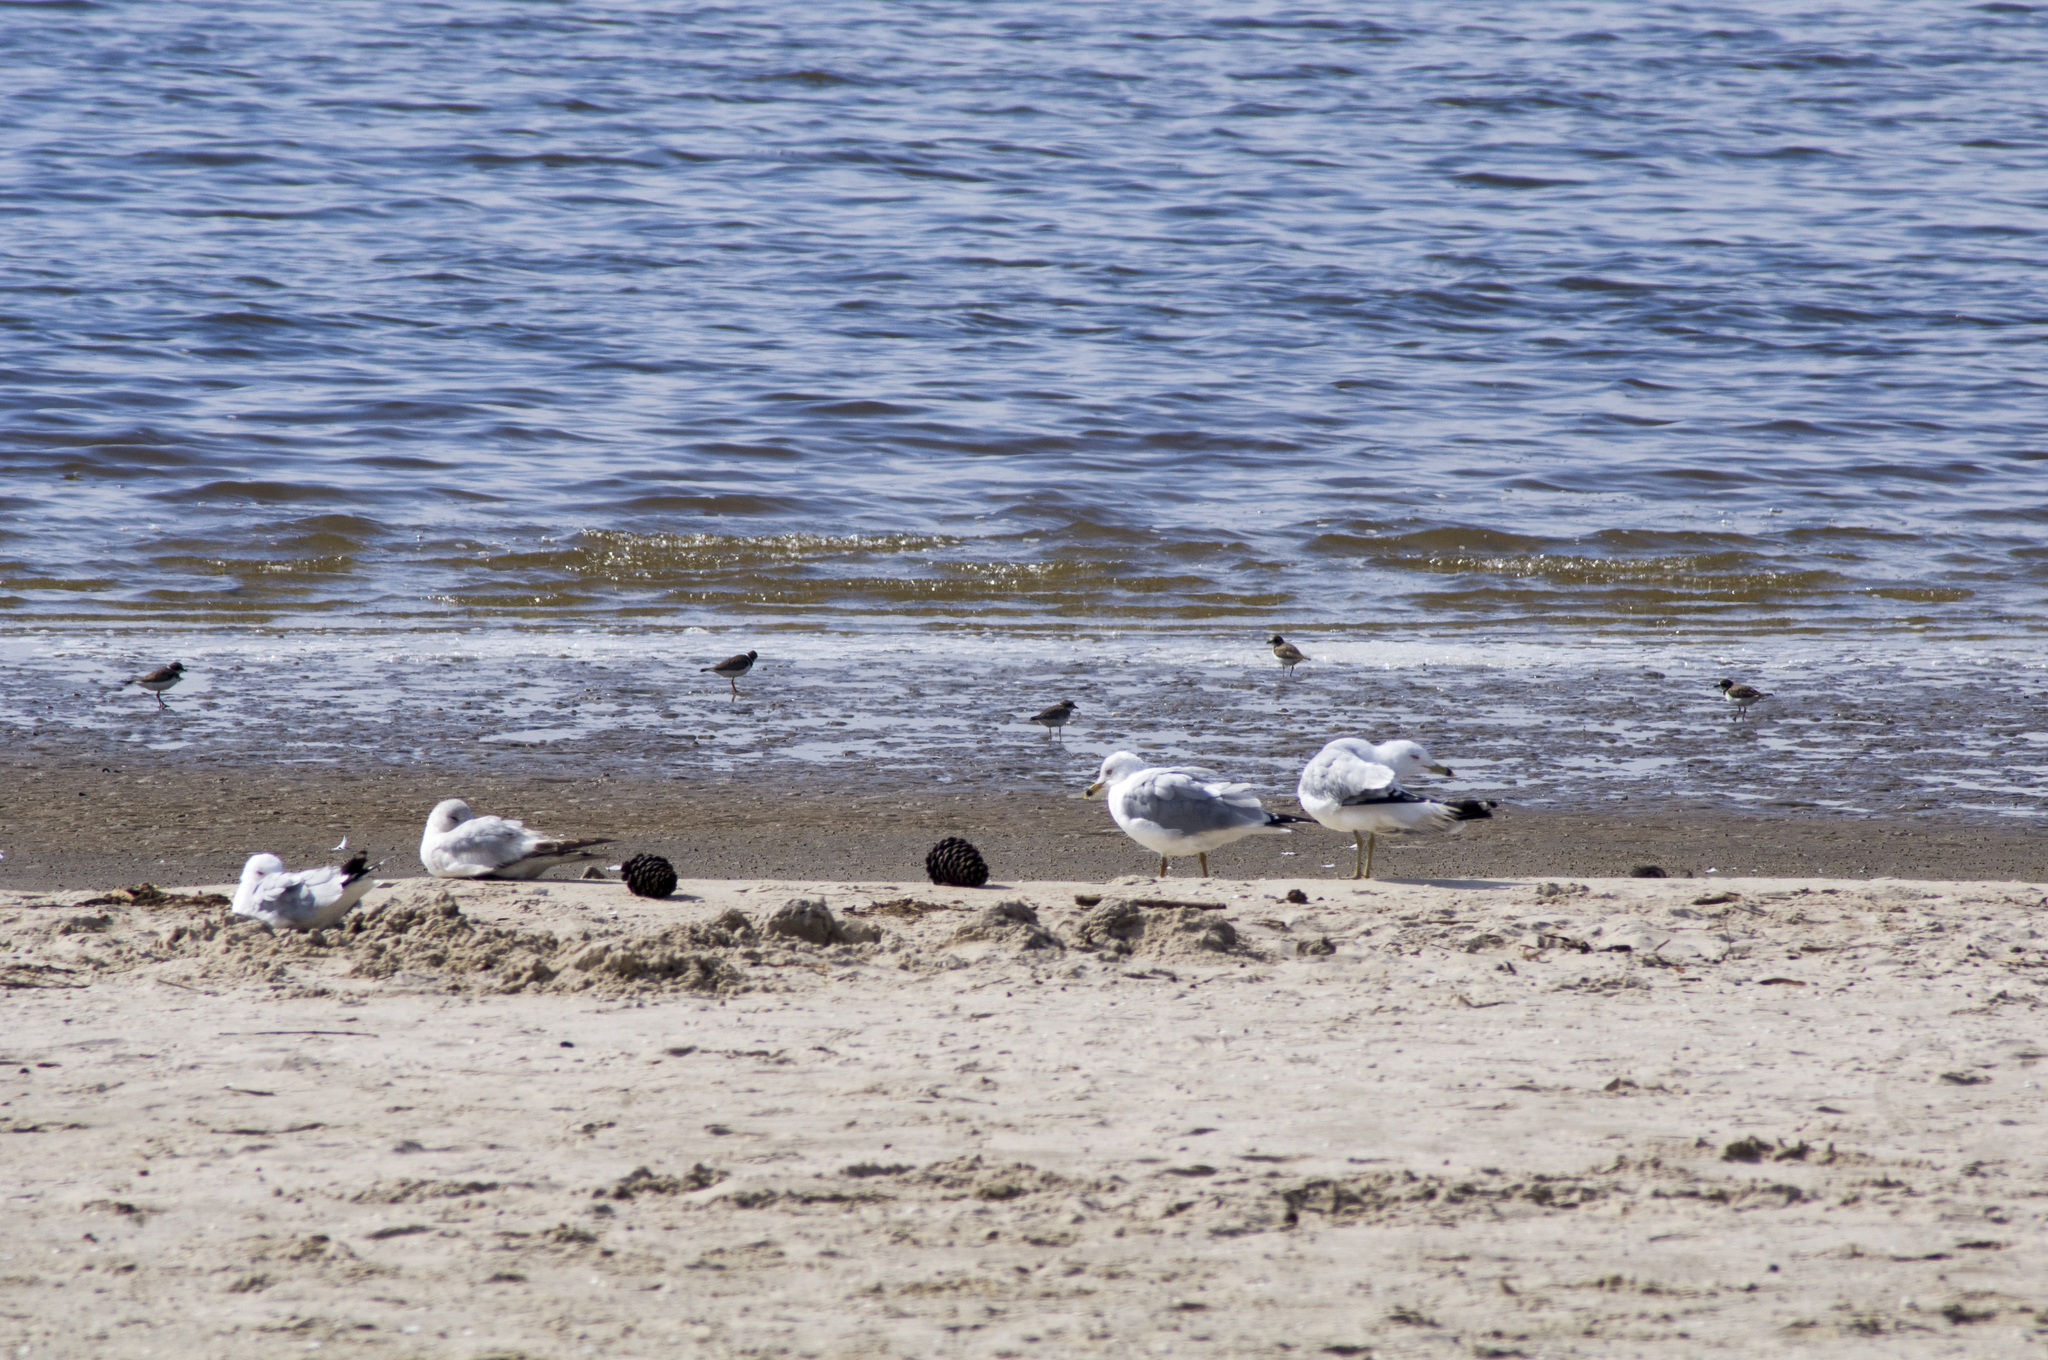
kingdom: Animalia
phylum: Chordata
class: Aves
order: Charadriiformes
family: Charadriidae
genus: Charadrius
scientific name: Charadrius semipalmatus
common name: Semipalmated plover
